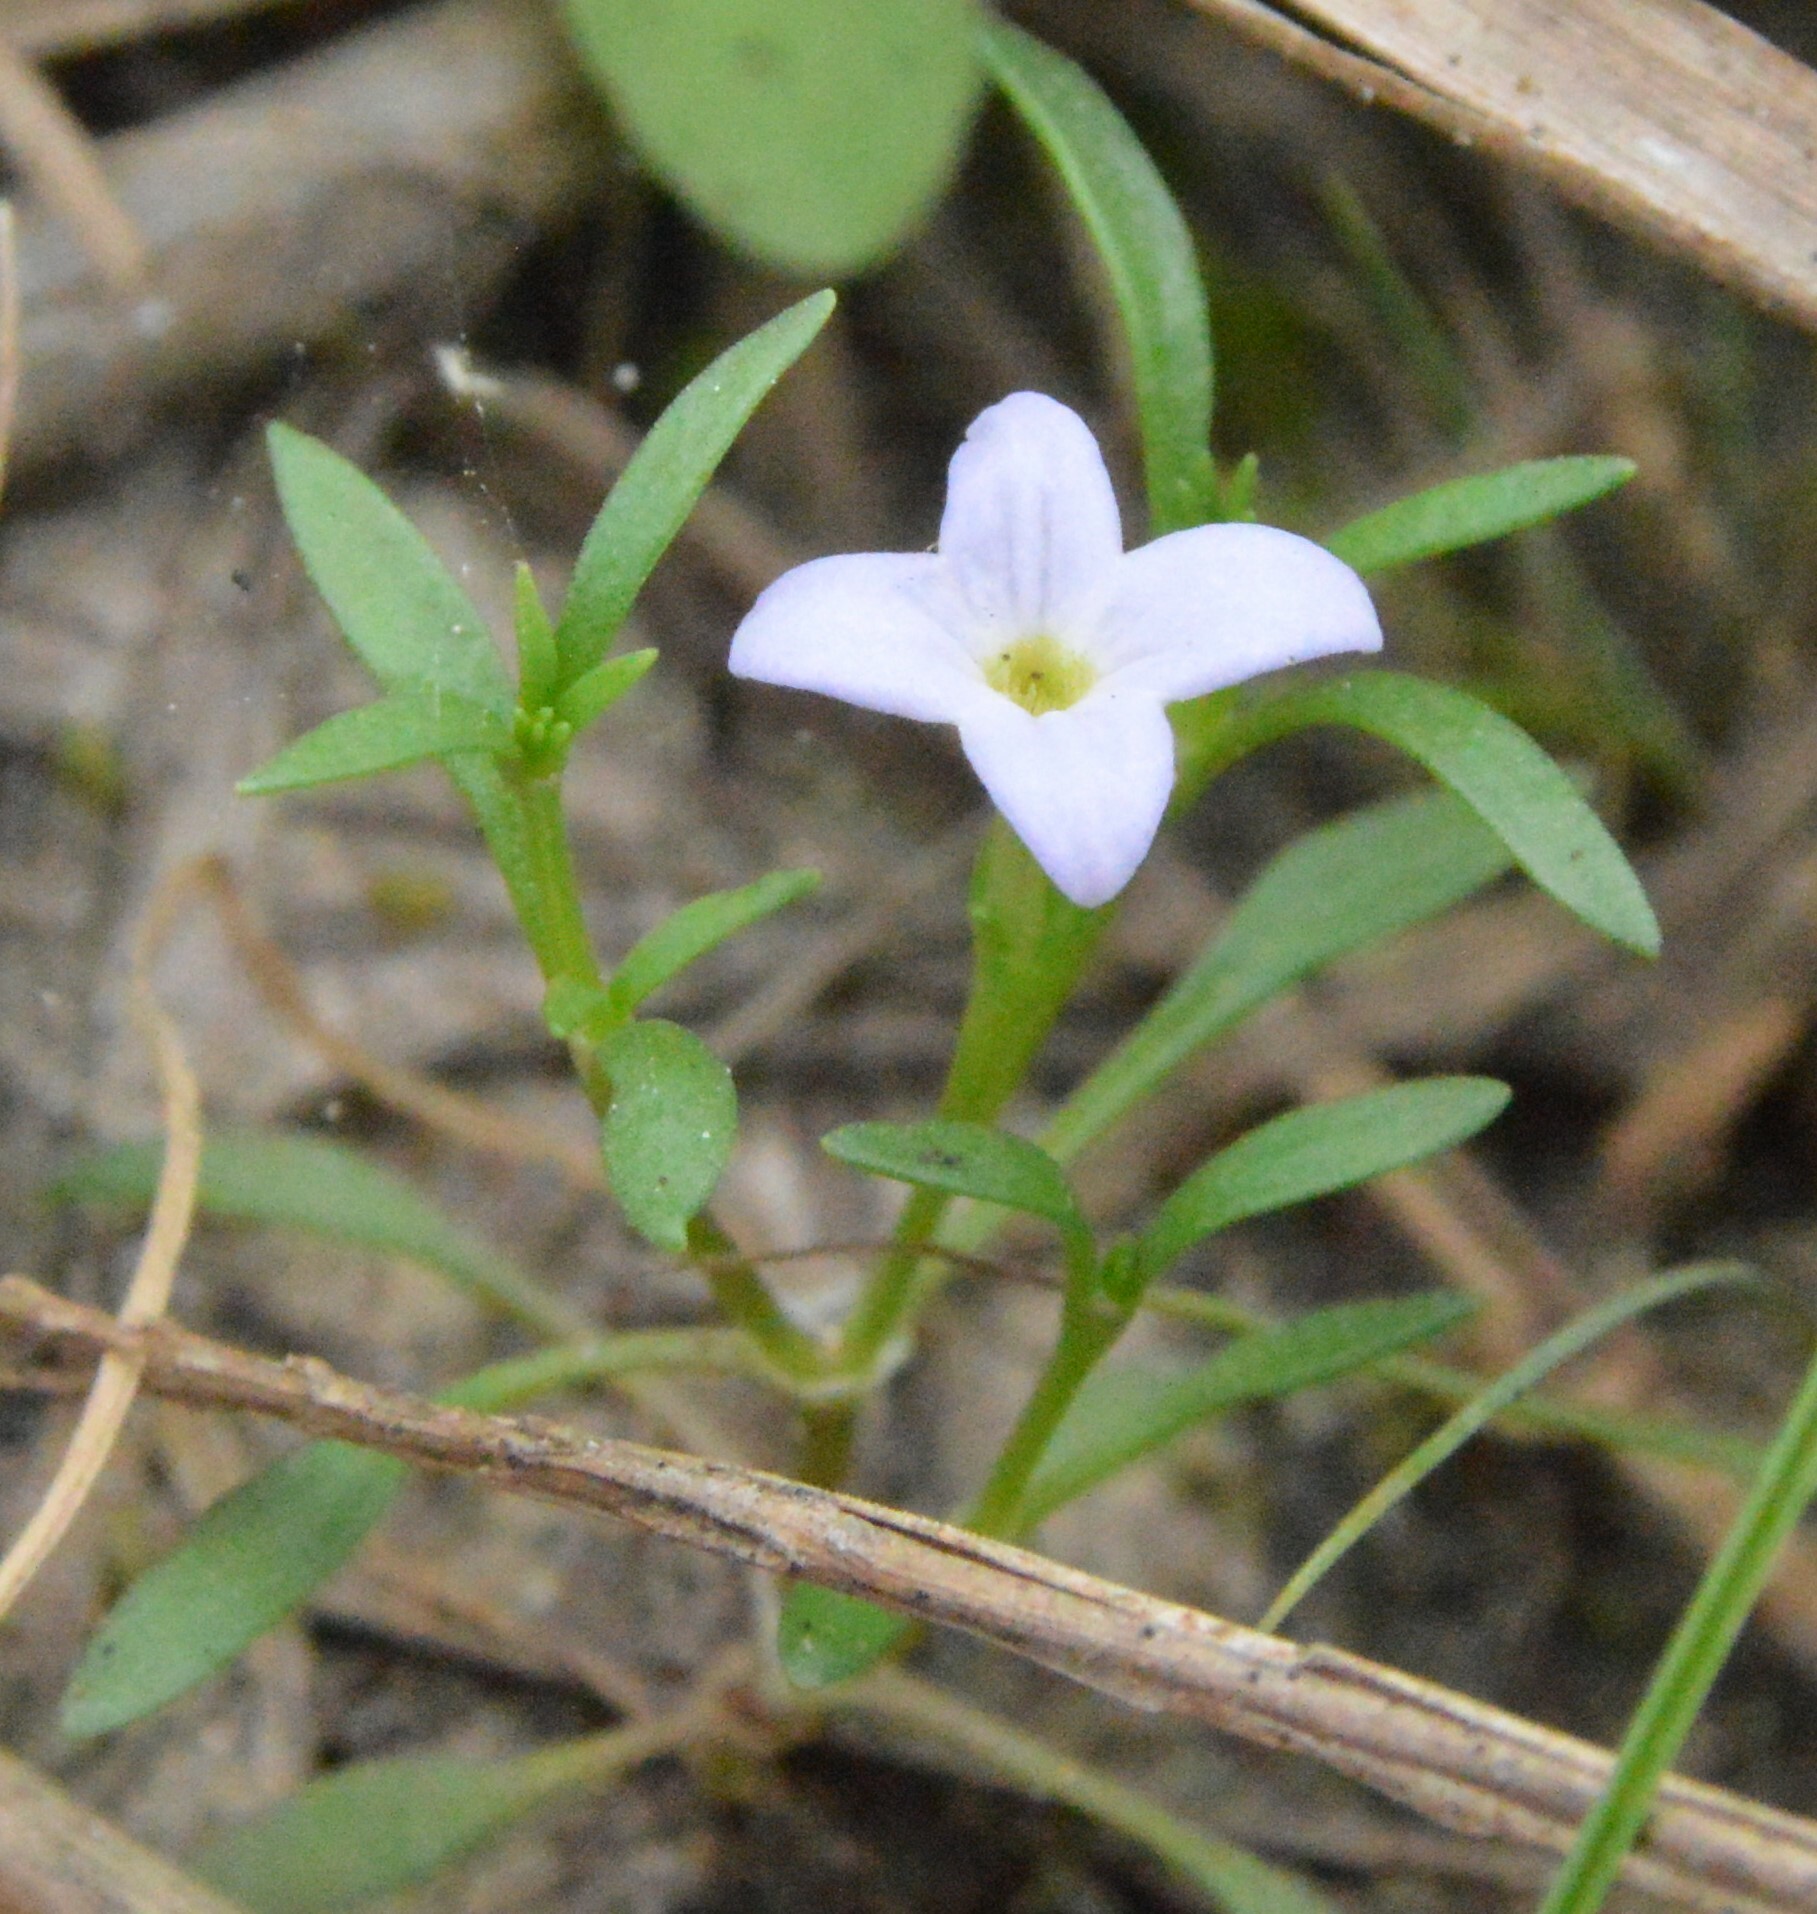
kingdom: Plantae
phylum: Tracheophyta
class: Magnoliopsida
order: Gentianales
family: Rubiaceae
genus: Houstonia
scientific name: Houstonia rosea
